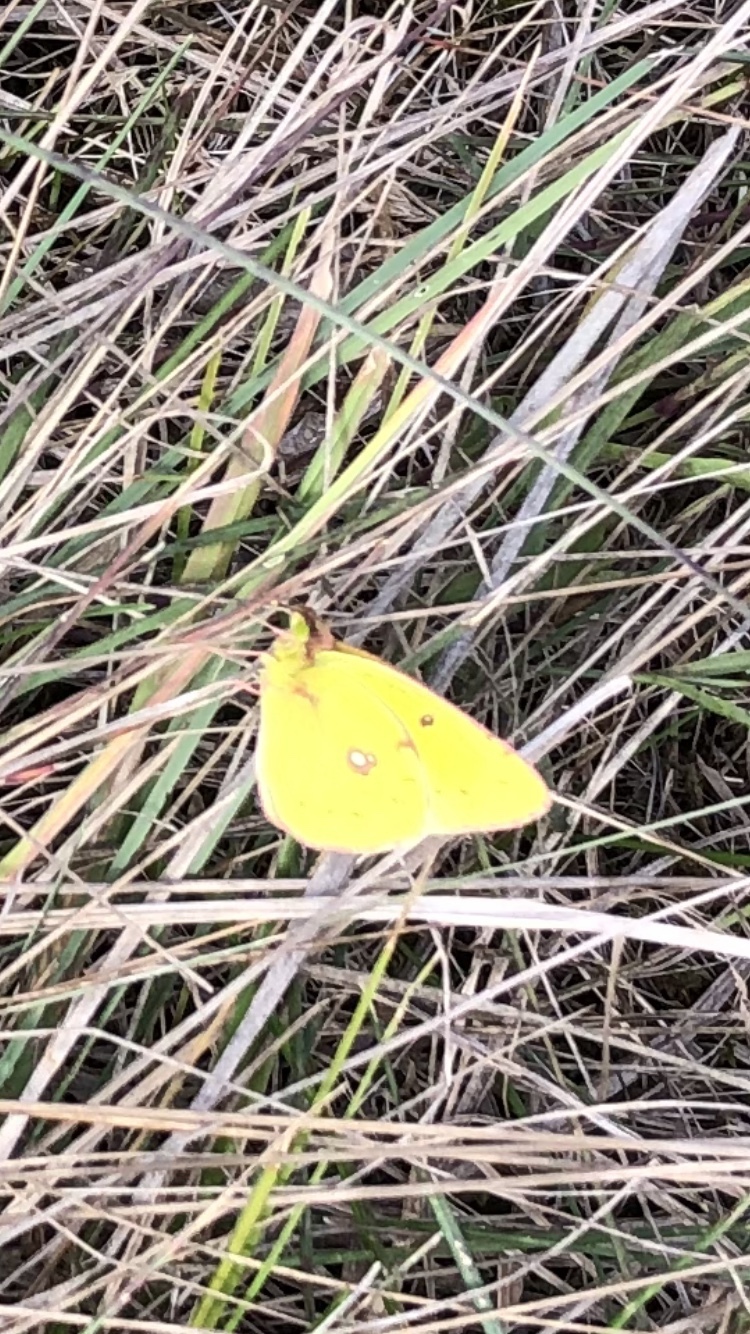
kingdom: Animalia
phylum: Arthropoda
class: Insecta
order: Lepidoptera
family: Pieridae
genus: Colias
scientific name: Colias myrmidone
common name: Danube clouded yellow
